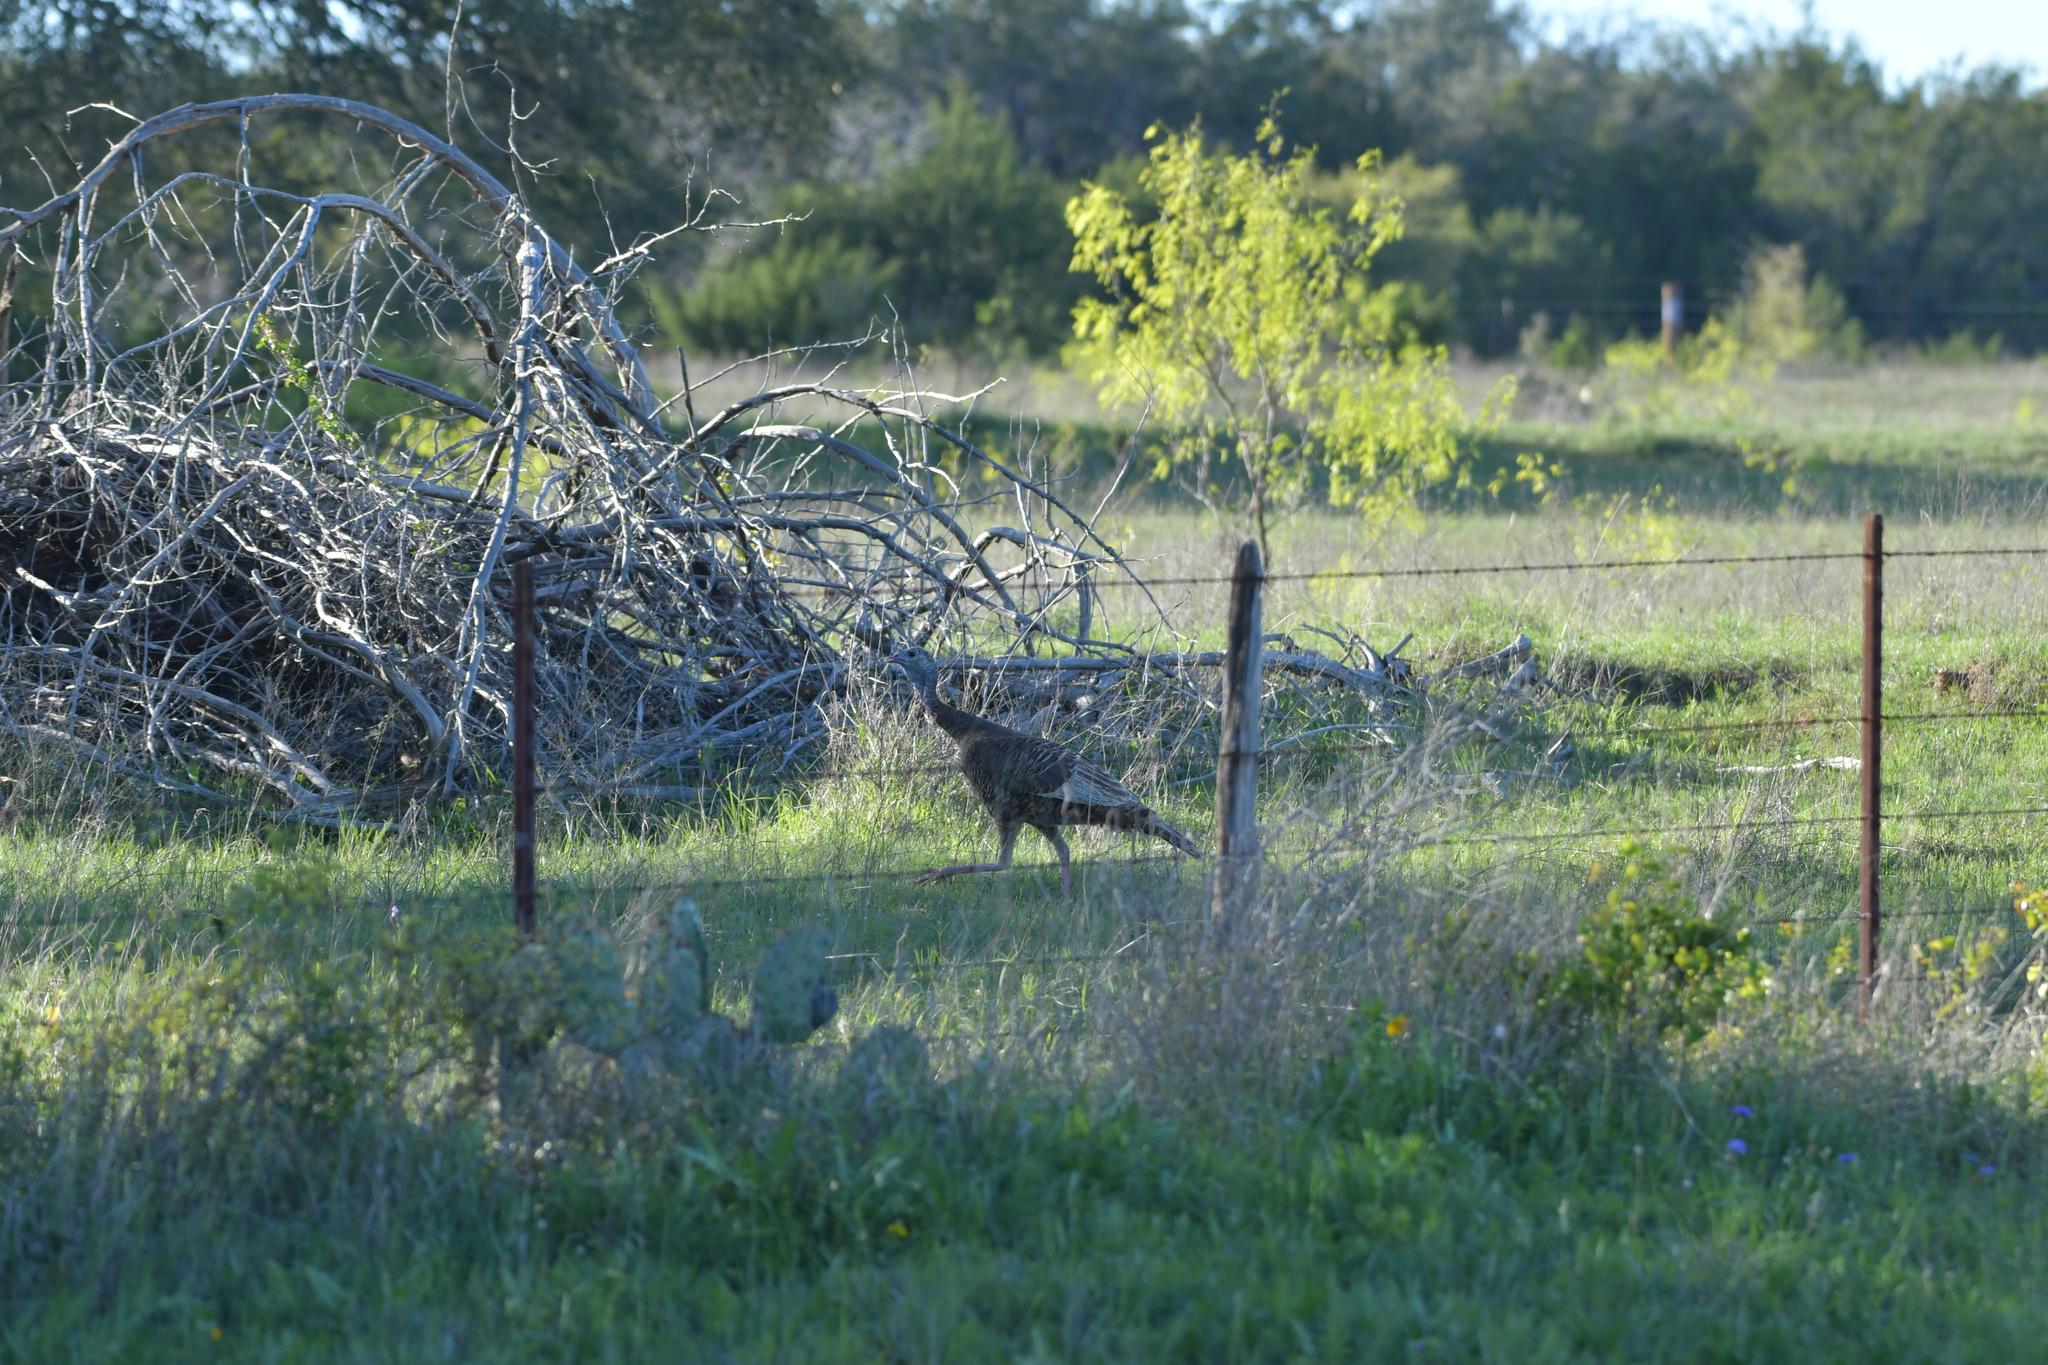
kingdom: Animalia
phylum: Chordata
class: Aves
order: Galliformes
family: Phasianidae
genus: Meleagris
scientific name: Meleagris gallopavo
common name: Wild turkey
